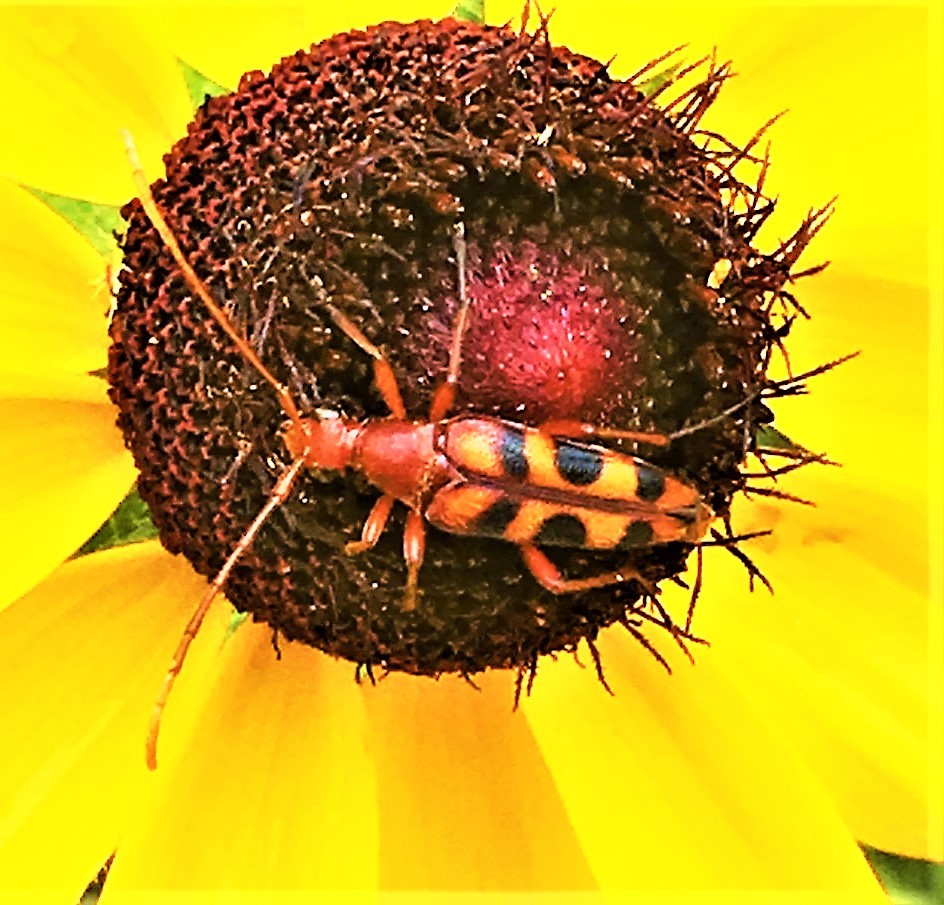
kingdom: Animalia
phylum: Arthropoda
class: Insecta
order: Coleoptera
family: Cerambycidae
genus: Strangalia
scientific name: Strangalia sexnotata
